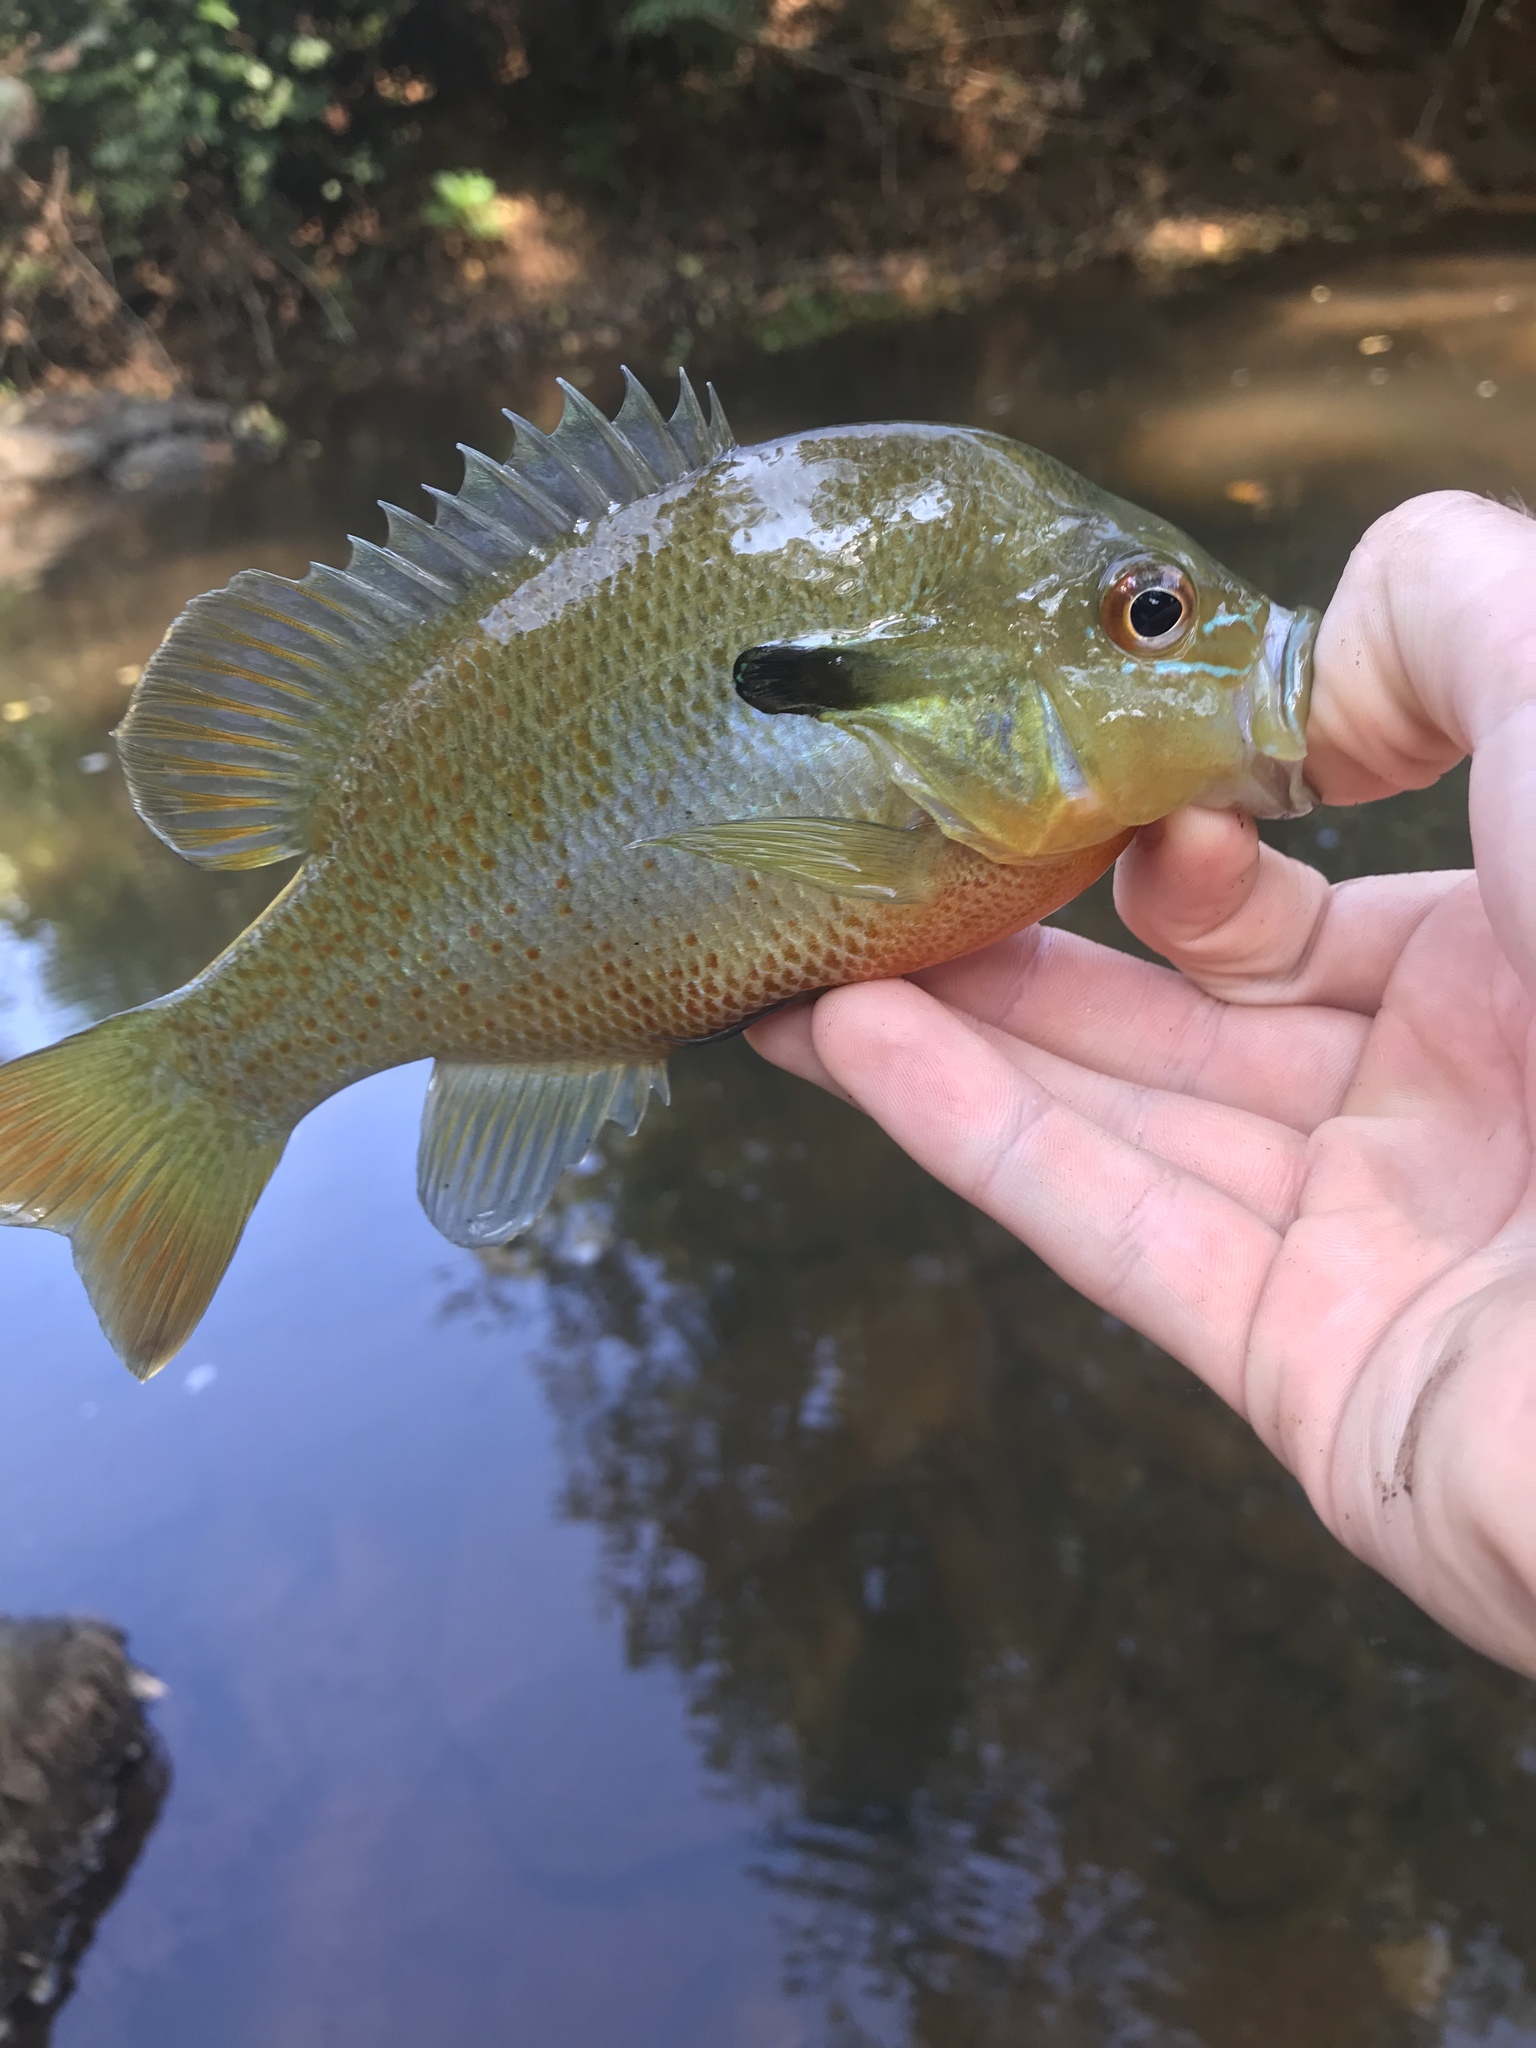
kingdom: Animalia
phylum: Chordata
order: Perciformes
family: Centrarchidae
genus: Lepomis
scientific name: Lepomis auritus
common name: Redbreast sunfish
